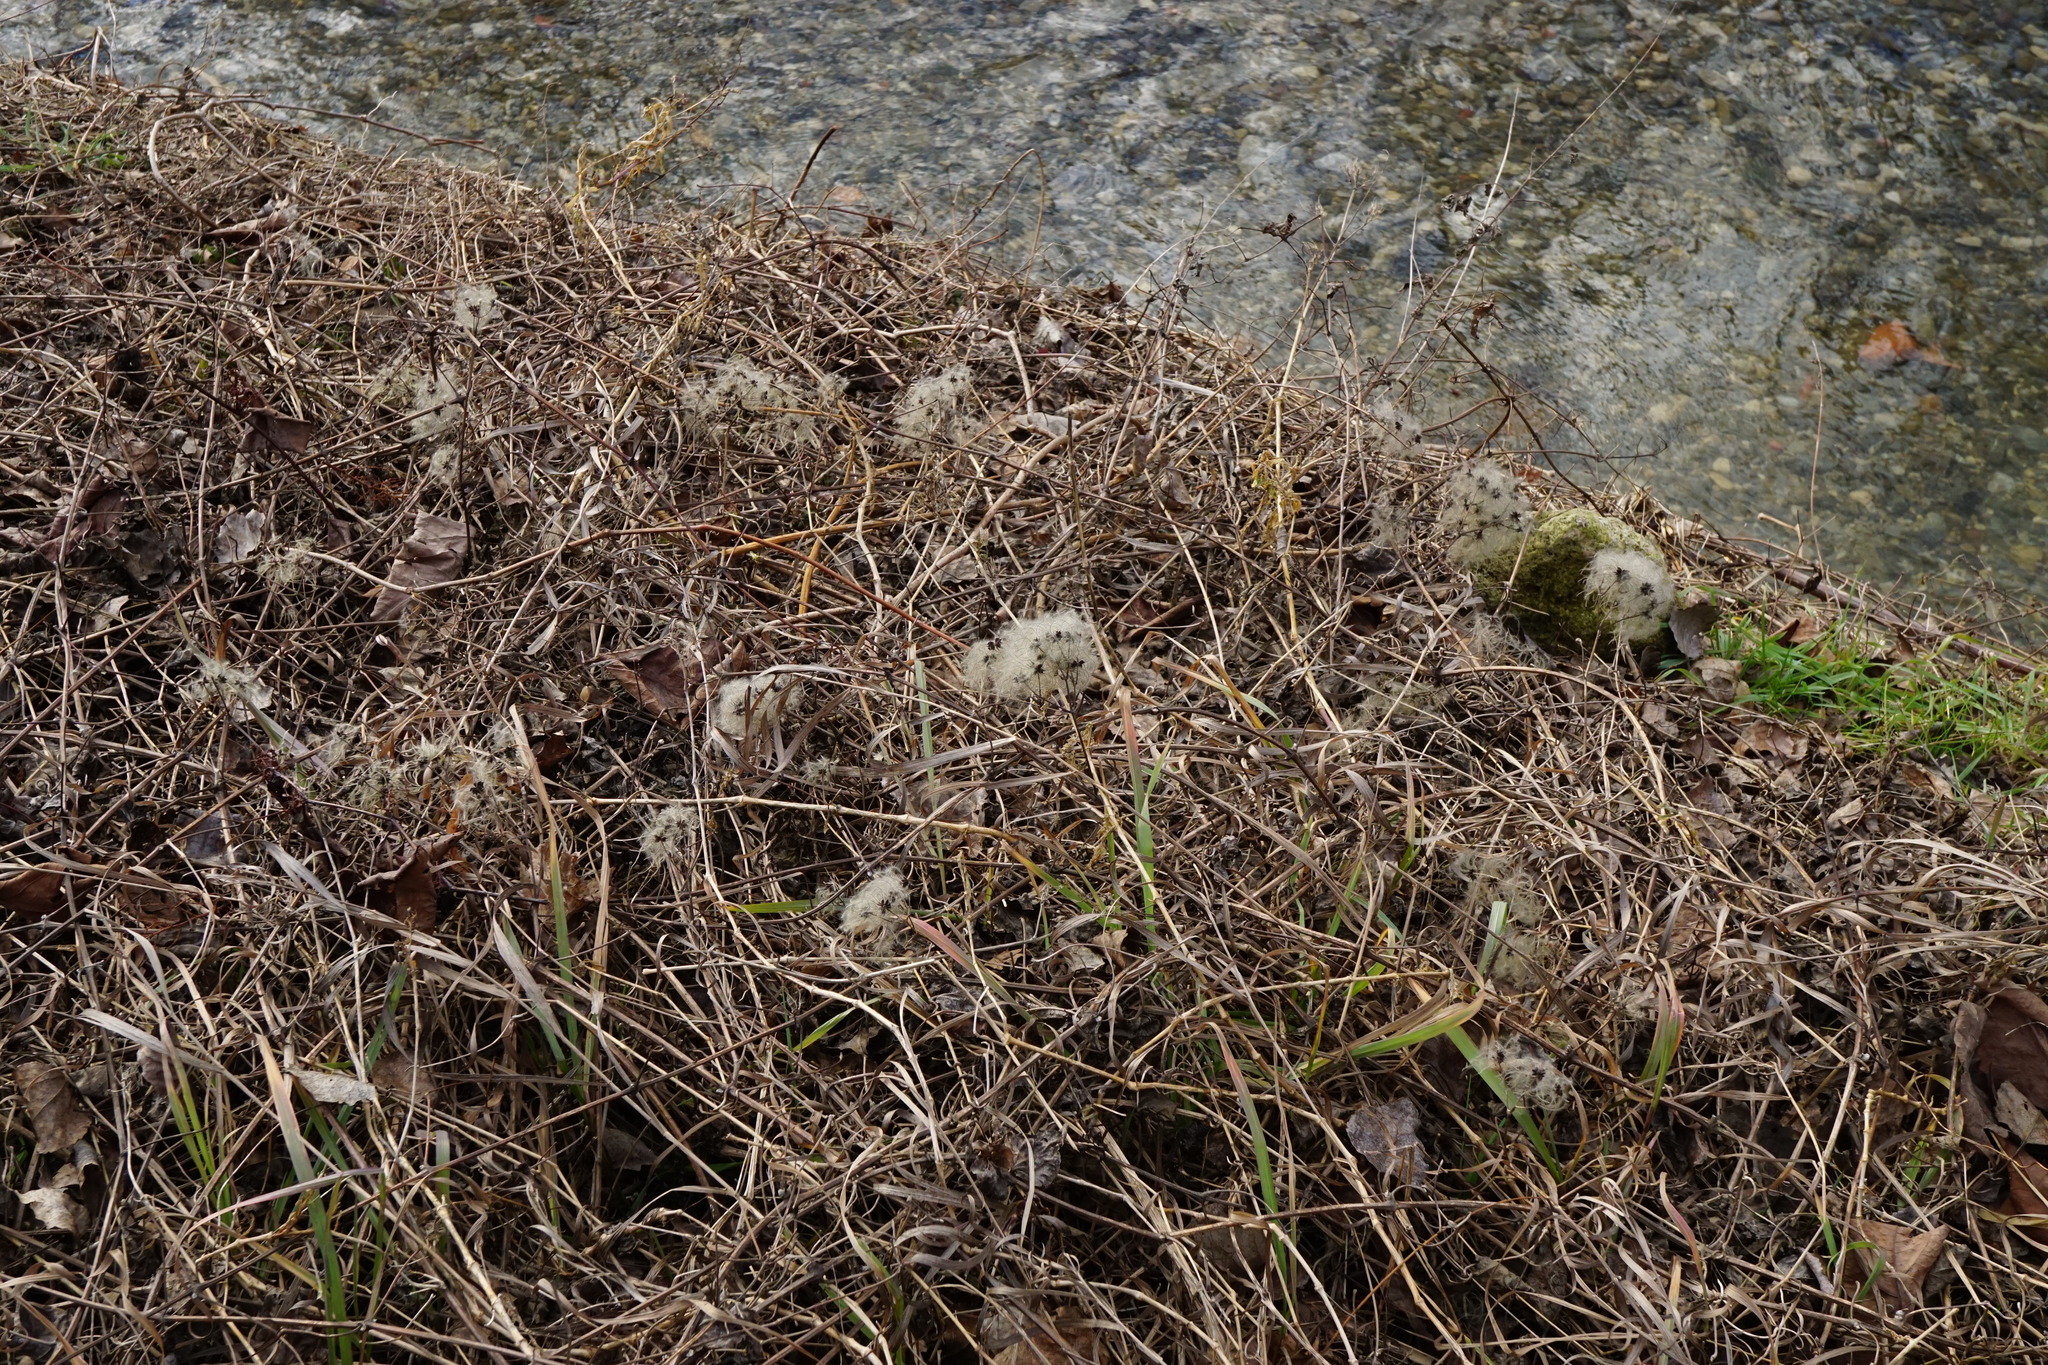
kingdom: Plantae
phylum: Tracheophyta
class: Magnoliopsida
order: Ranunculales
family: Ranunculaceae
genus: Clematis
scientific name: Clematis vitalba
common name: Evergreen clematis
